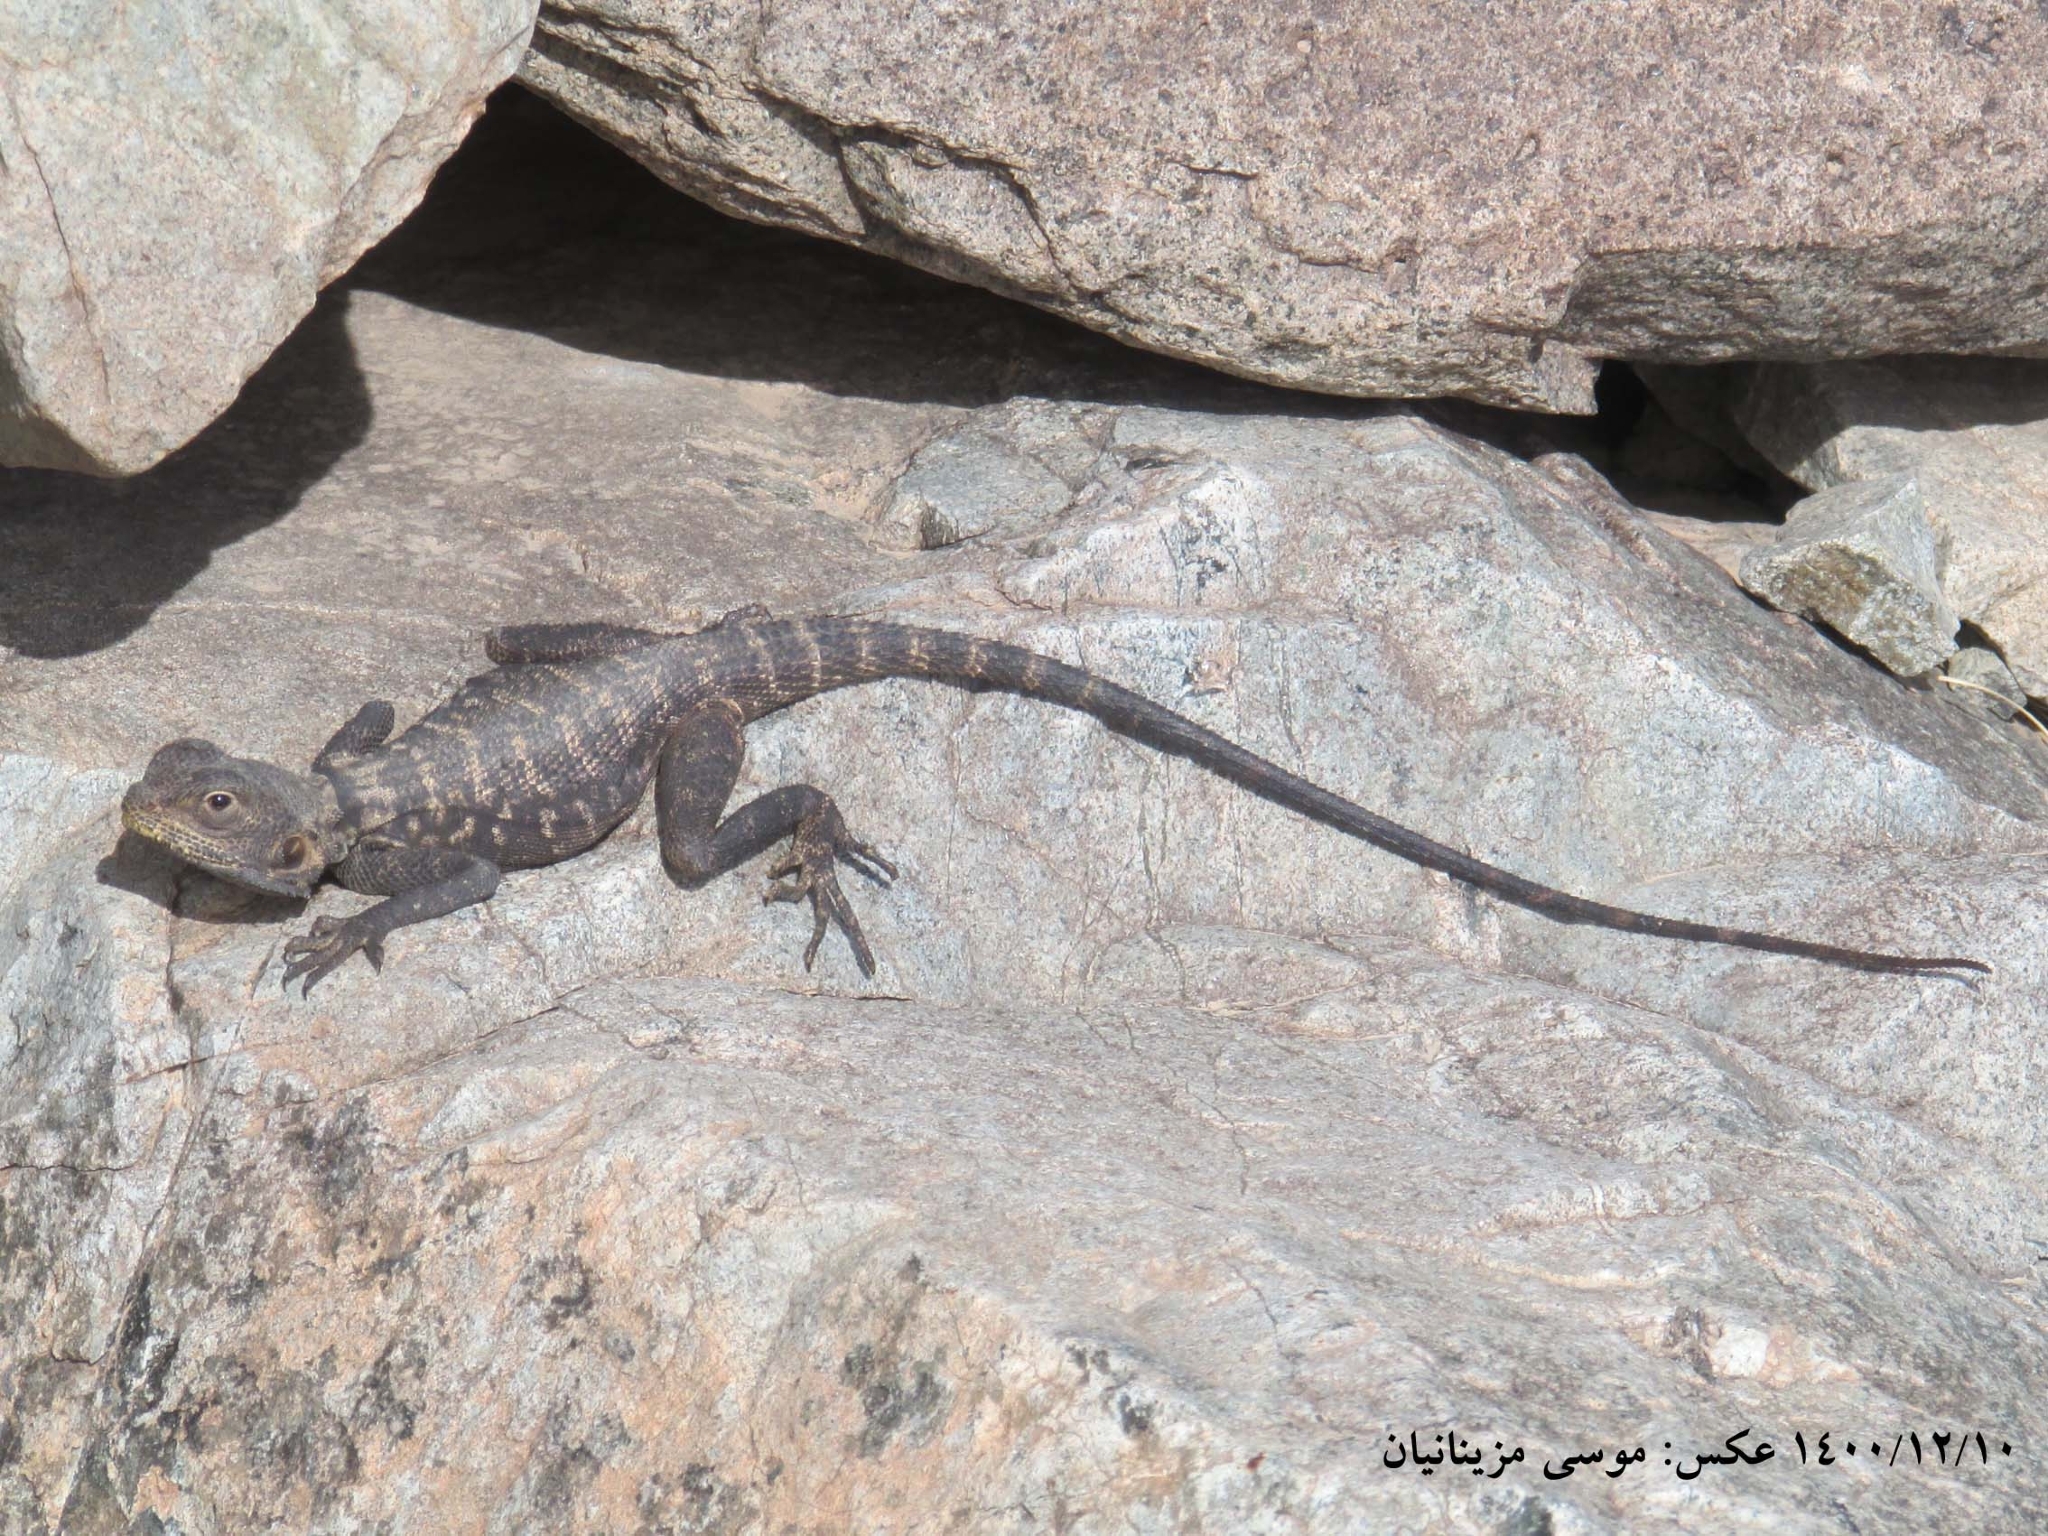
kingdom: Animalia
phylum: Chordata
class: Squamata
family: Agamidae
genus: Laudakia
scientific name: Laudakia nupta
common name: Large-headed rock agama
